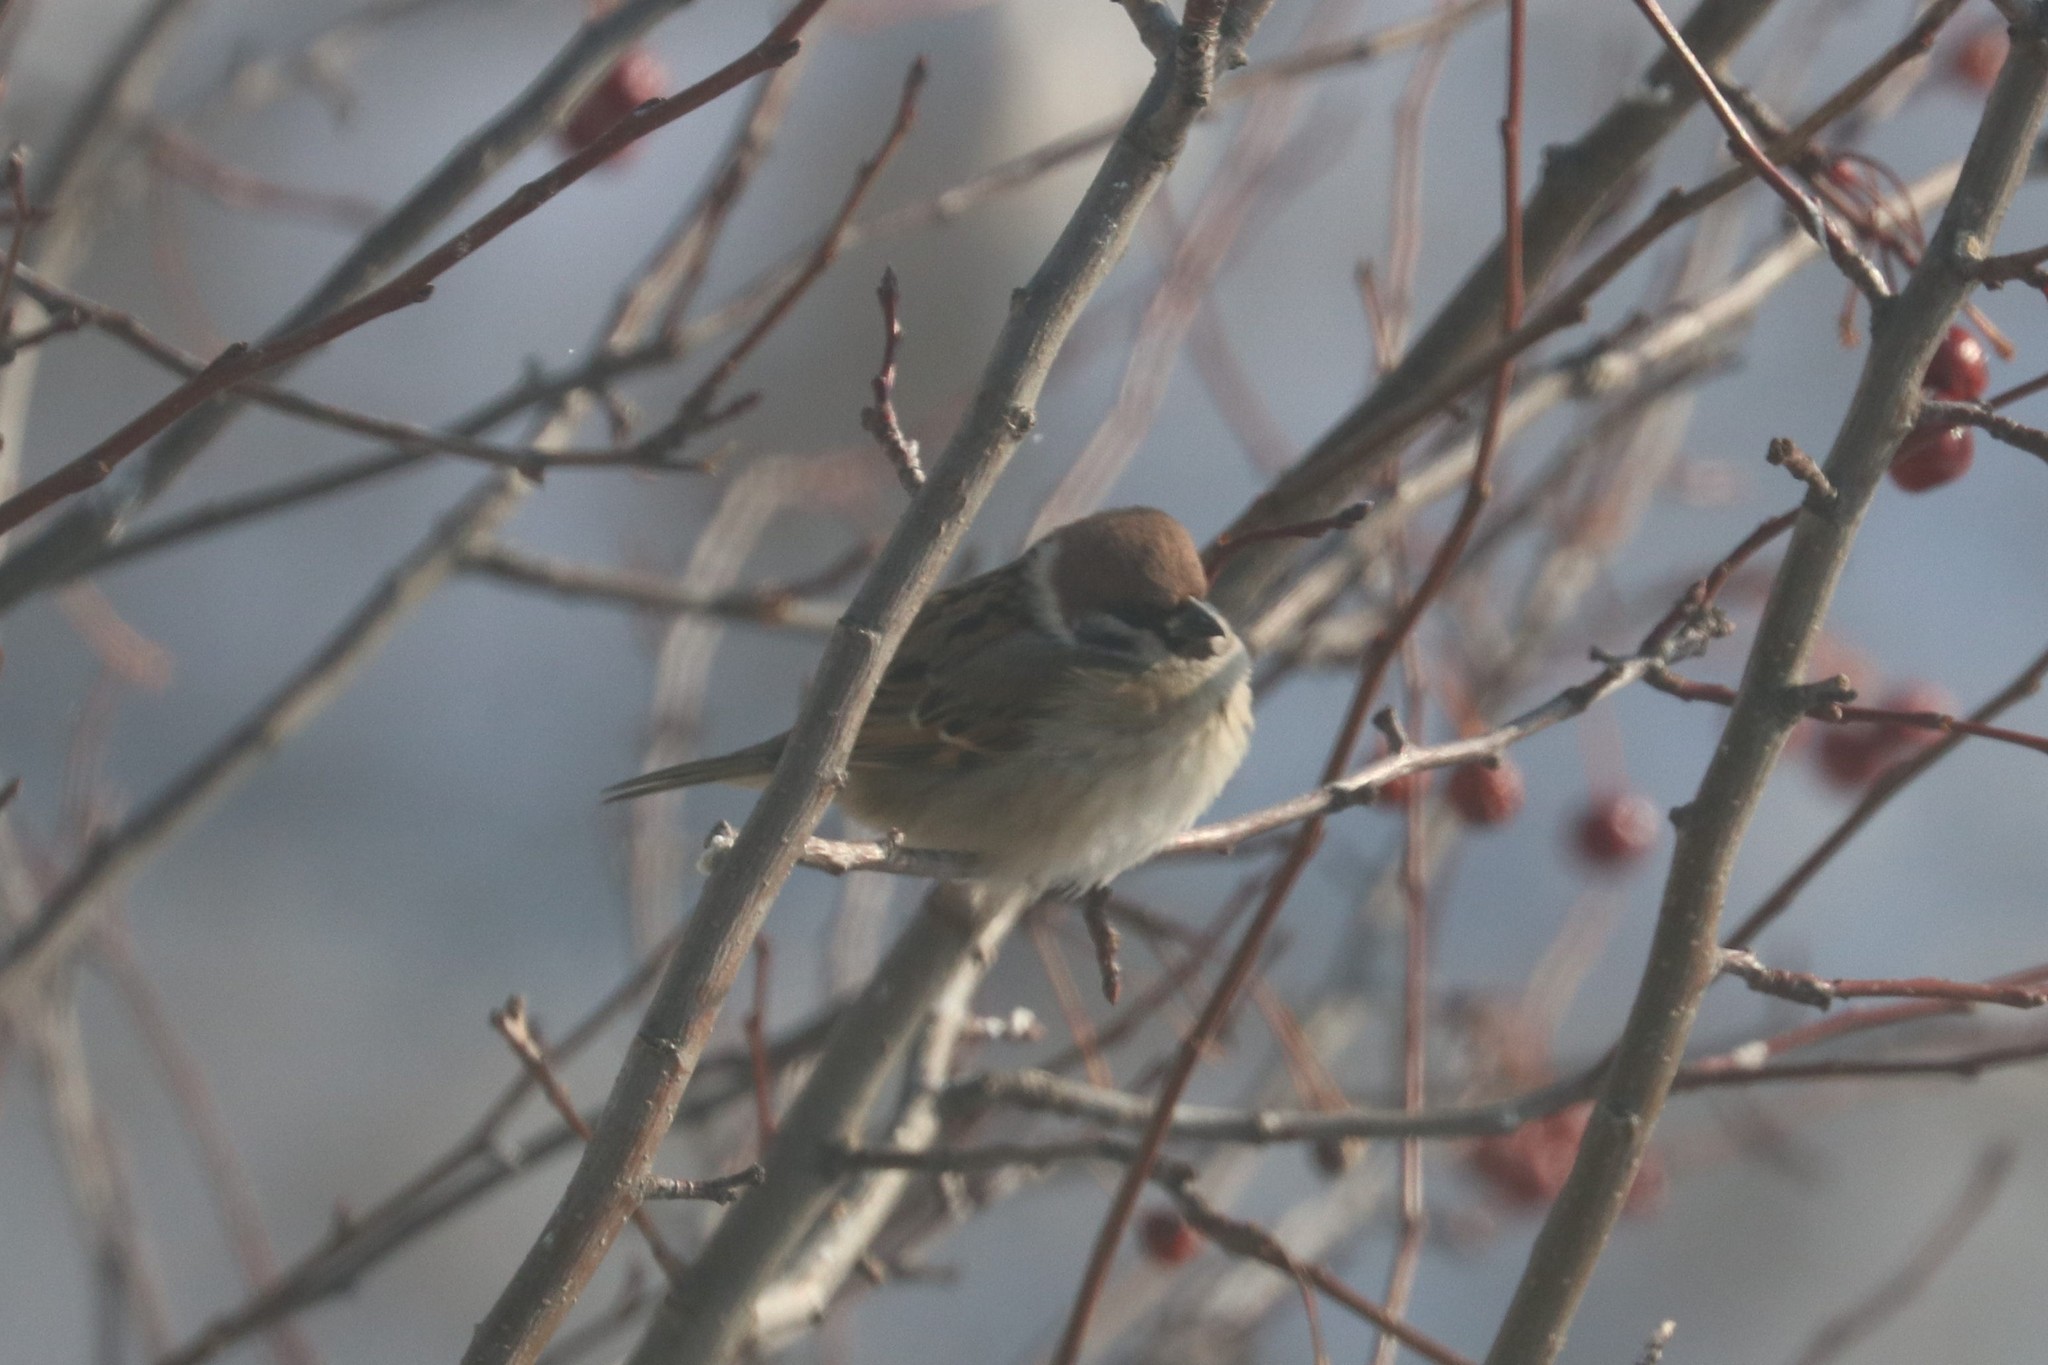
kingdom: Animalia
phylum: Chordata
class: Aves
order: Passeriformes
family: Passeridae
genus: Passer
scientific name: Passer montanus
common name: Eurasian tree sparrow
